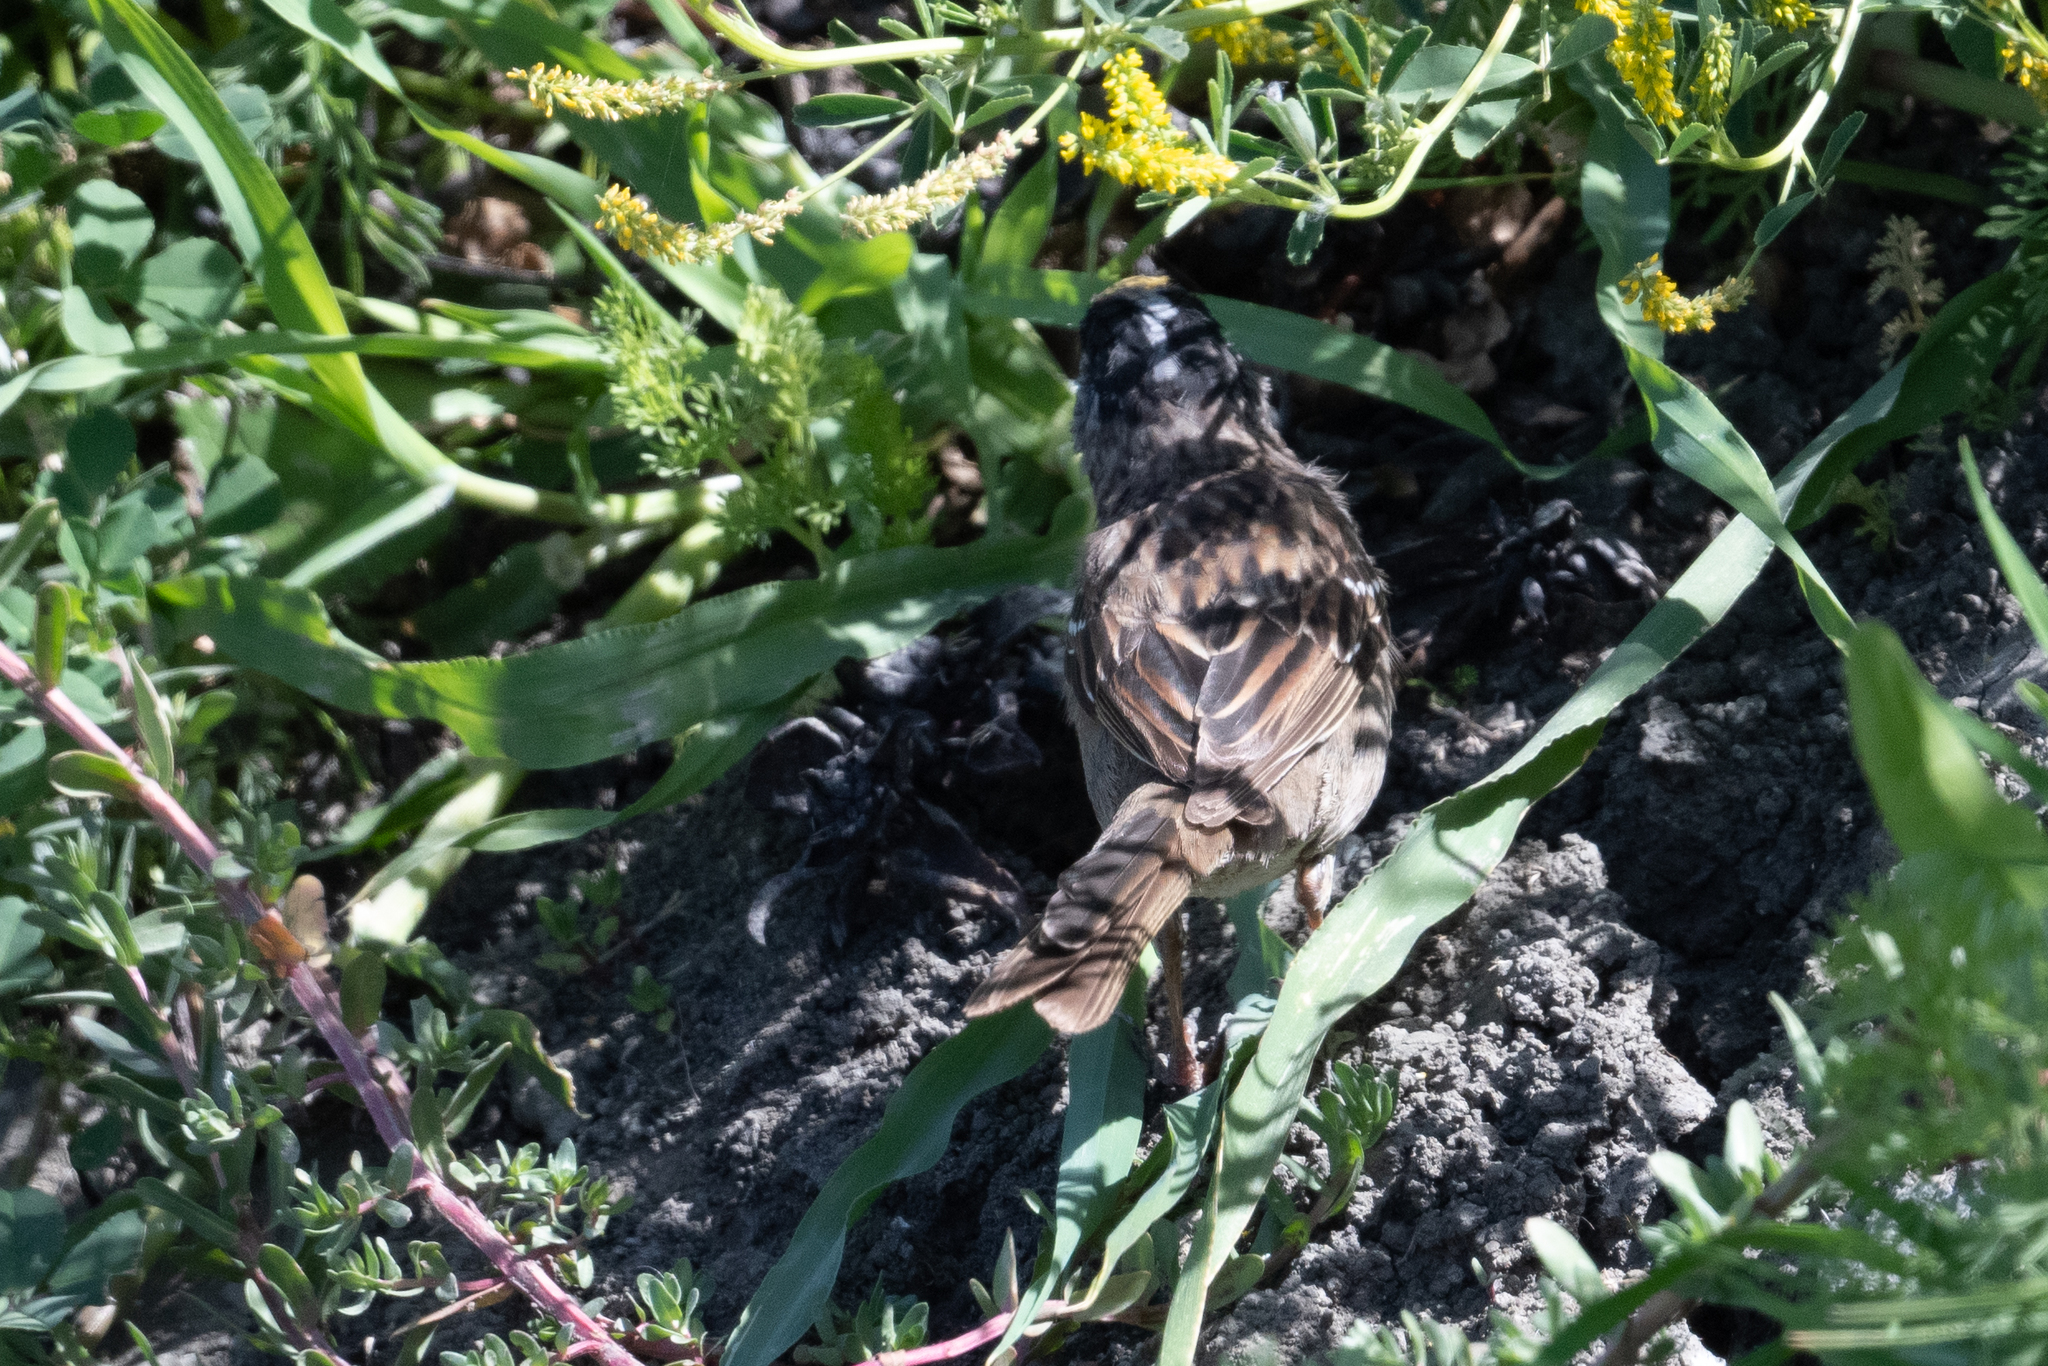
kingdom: Animalia
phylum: Chordata
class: Aves
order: Passeriformes
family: Passerellidae
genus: Zonotrichia
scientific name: Zonotrichia atricapilla
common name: Golden-crowned sparrow
